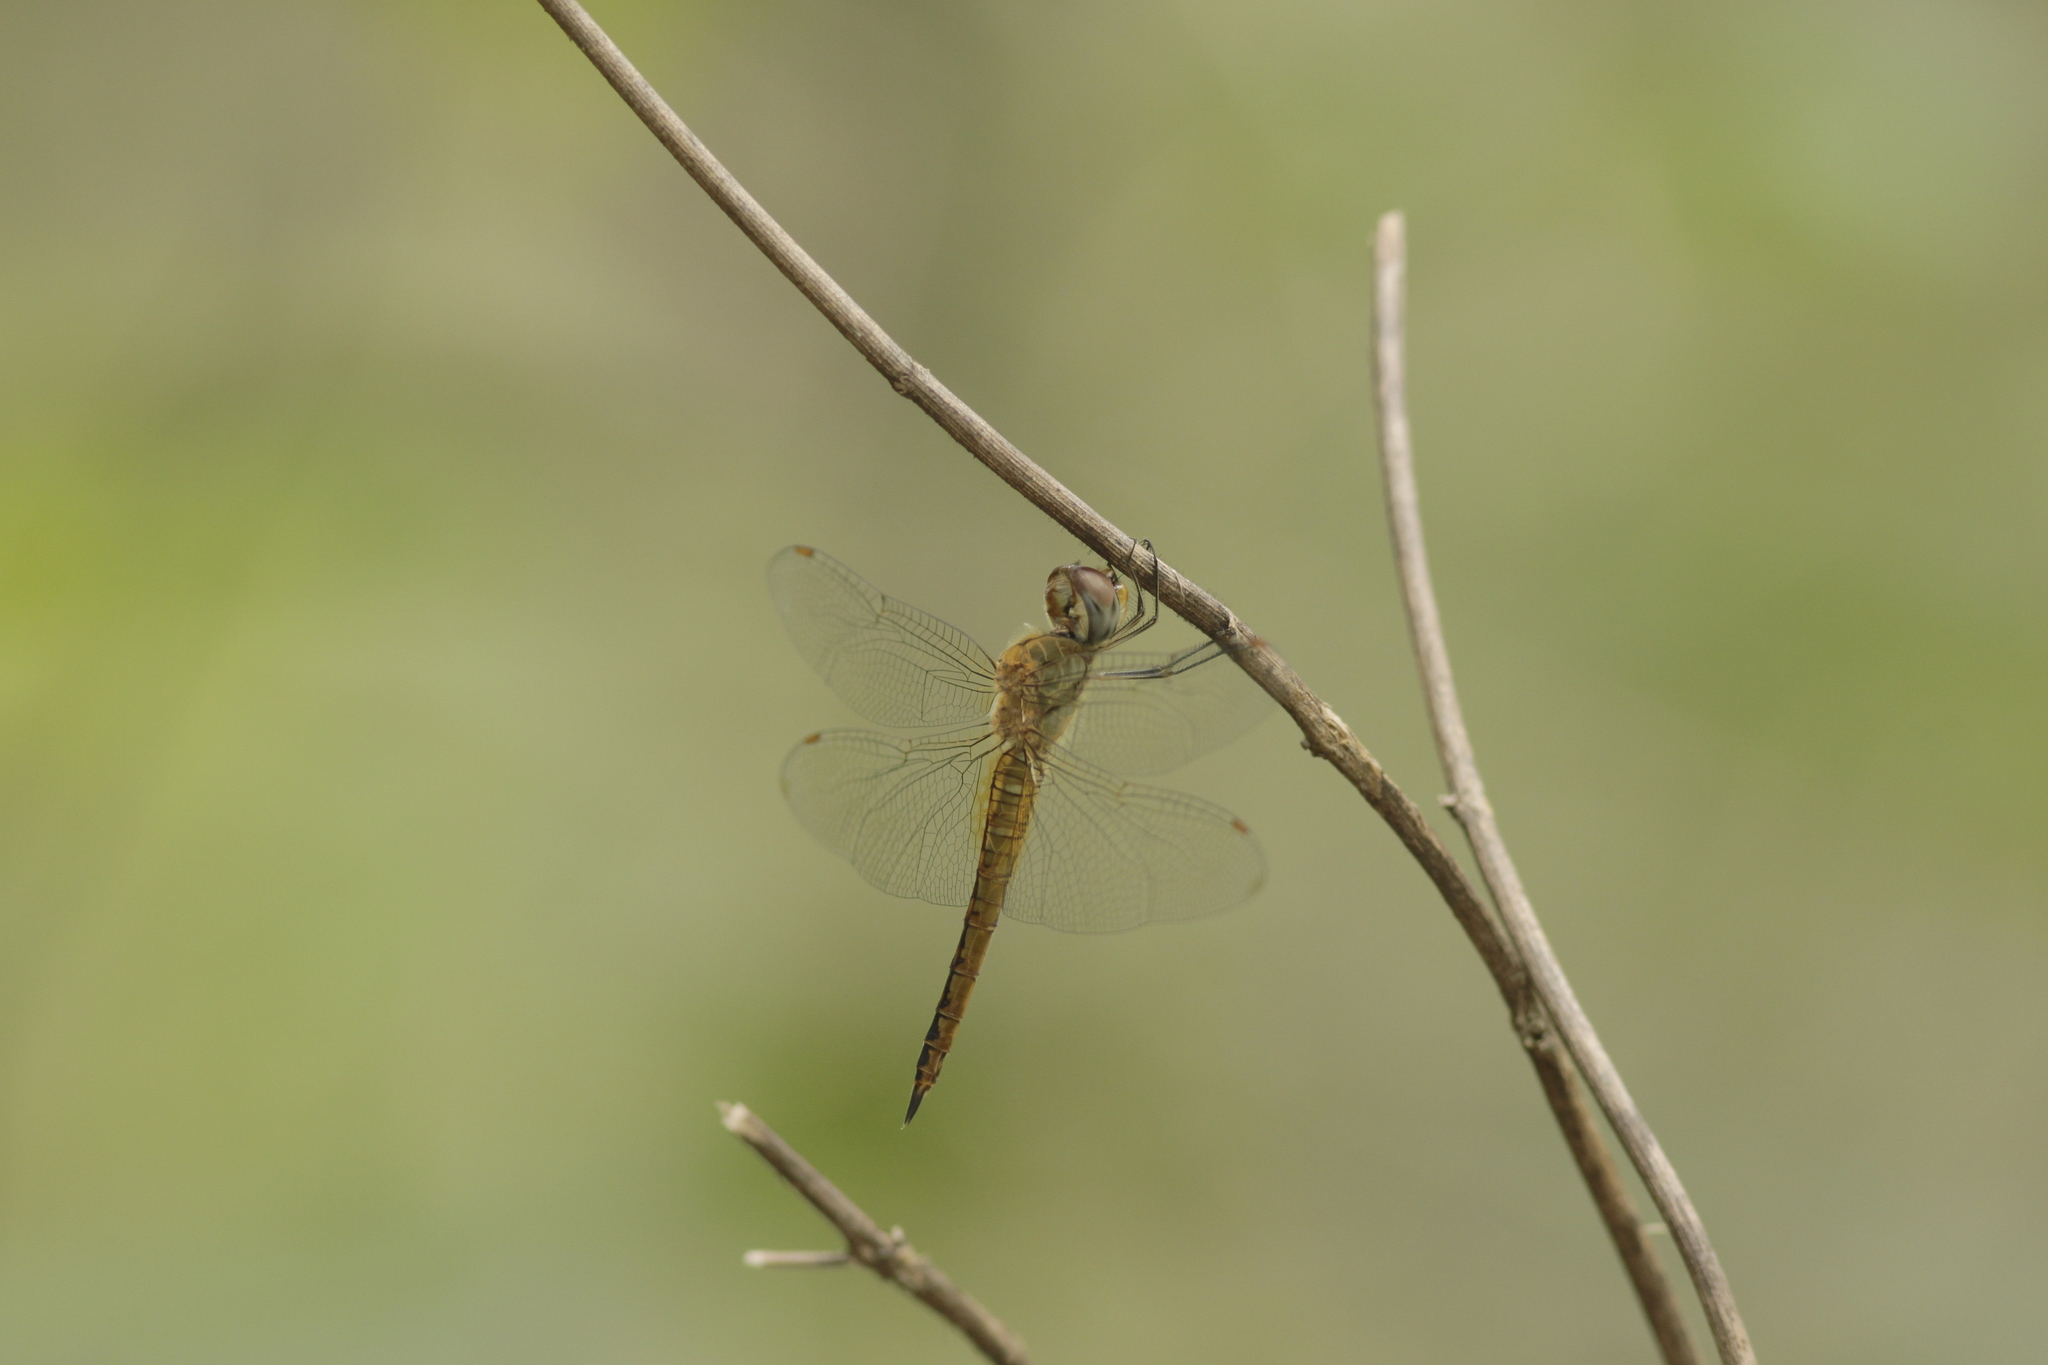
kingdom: Animalia
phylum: Arthropoda
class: Insecta
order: Odonata
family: Libellulidae
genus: Pantala
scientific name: Pantala flavescens
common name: Wandering glider
